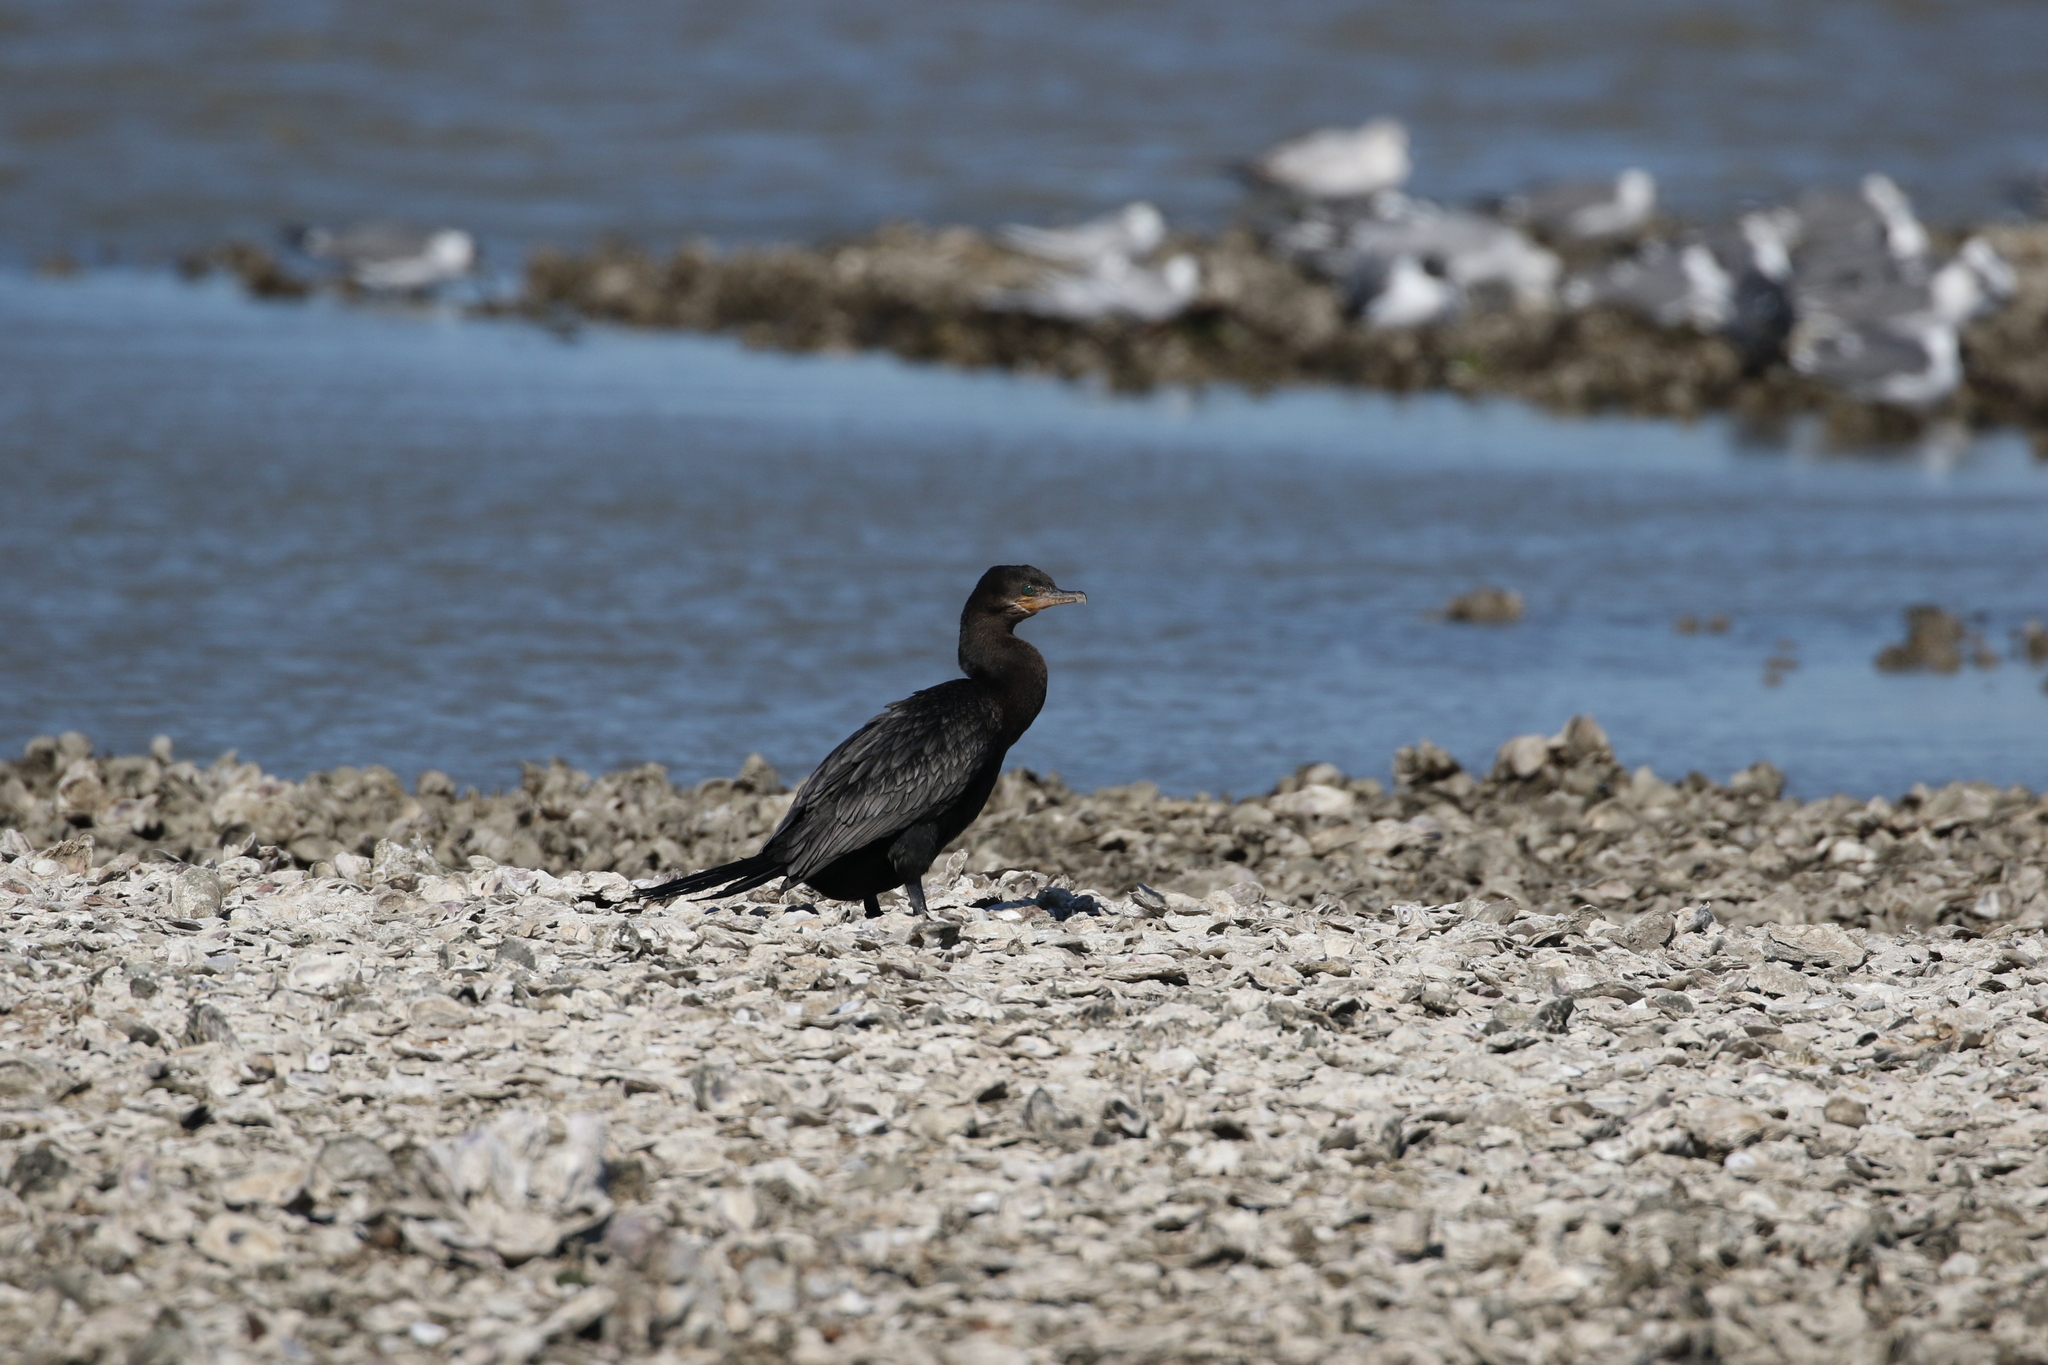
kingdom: Animalia
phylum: Chordata
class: Aves
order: Suliformes
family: Phalacrocoracidae
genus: Phalacrocorax
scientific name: Phalacrocorax brasilianus
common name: Neotropic cormorant
